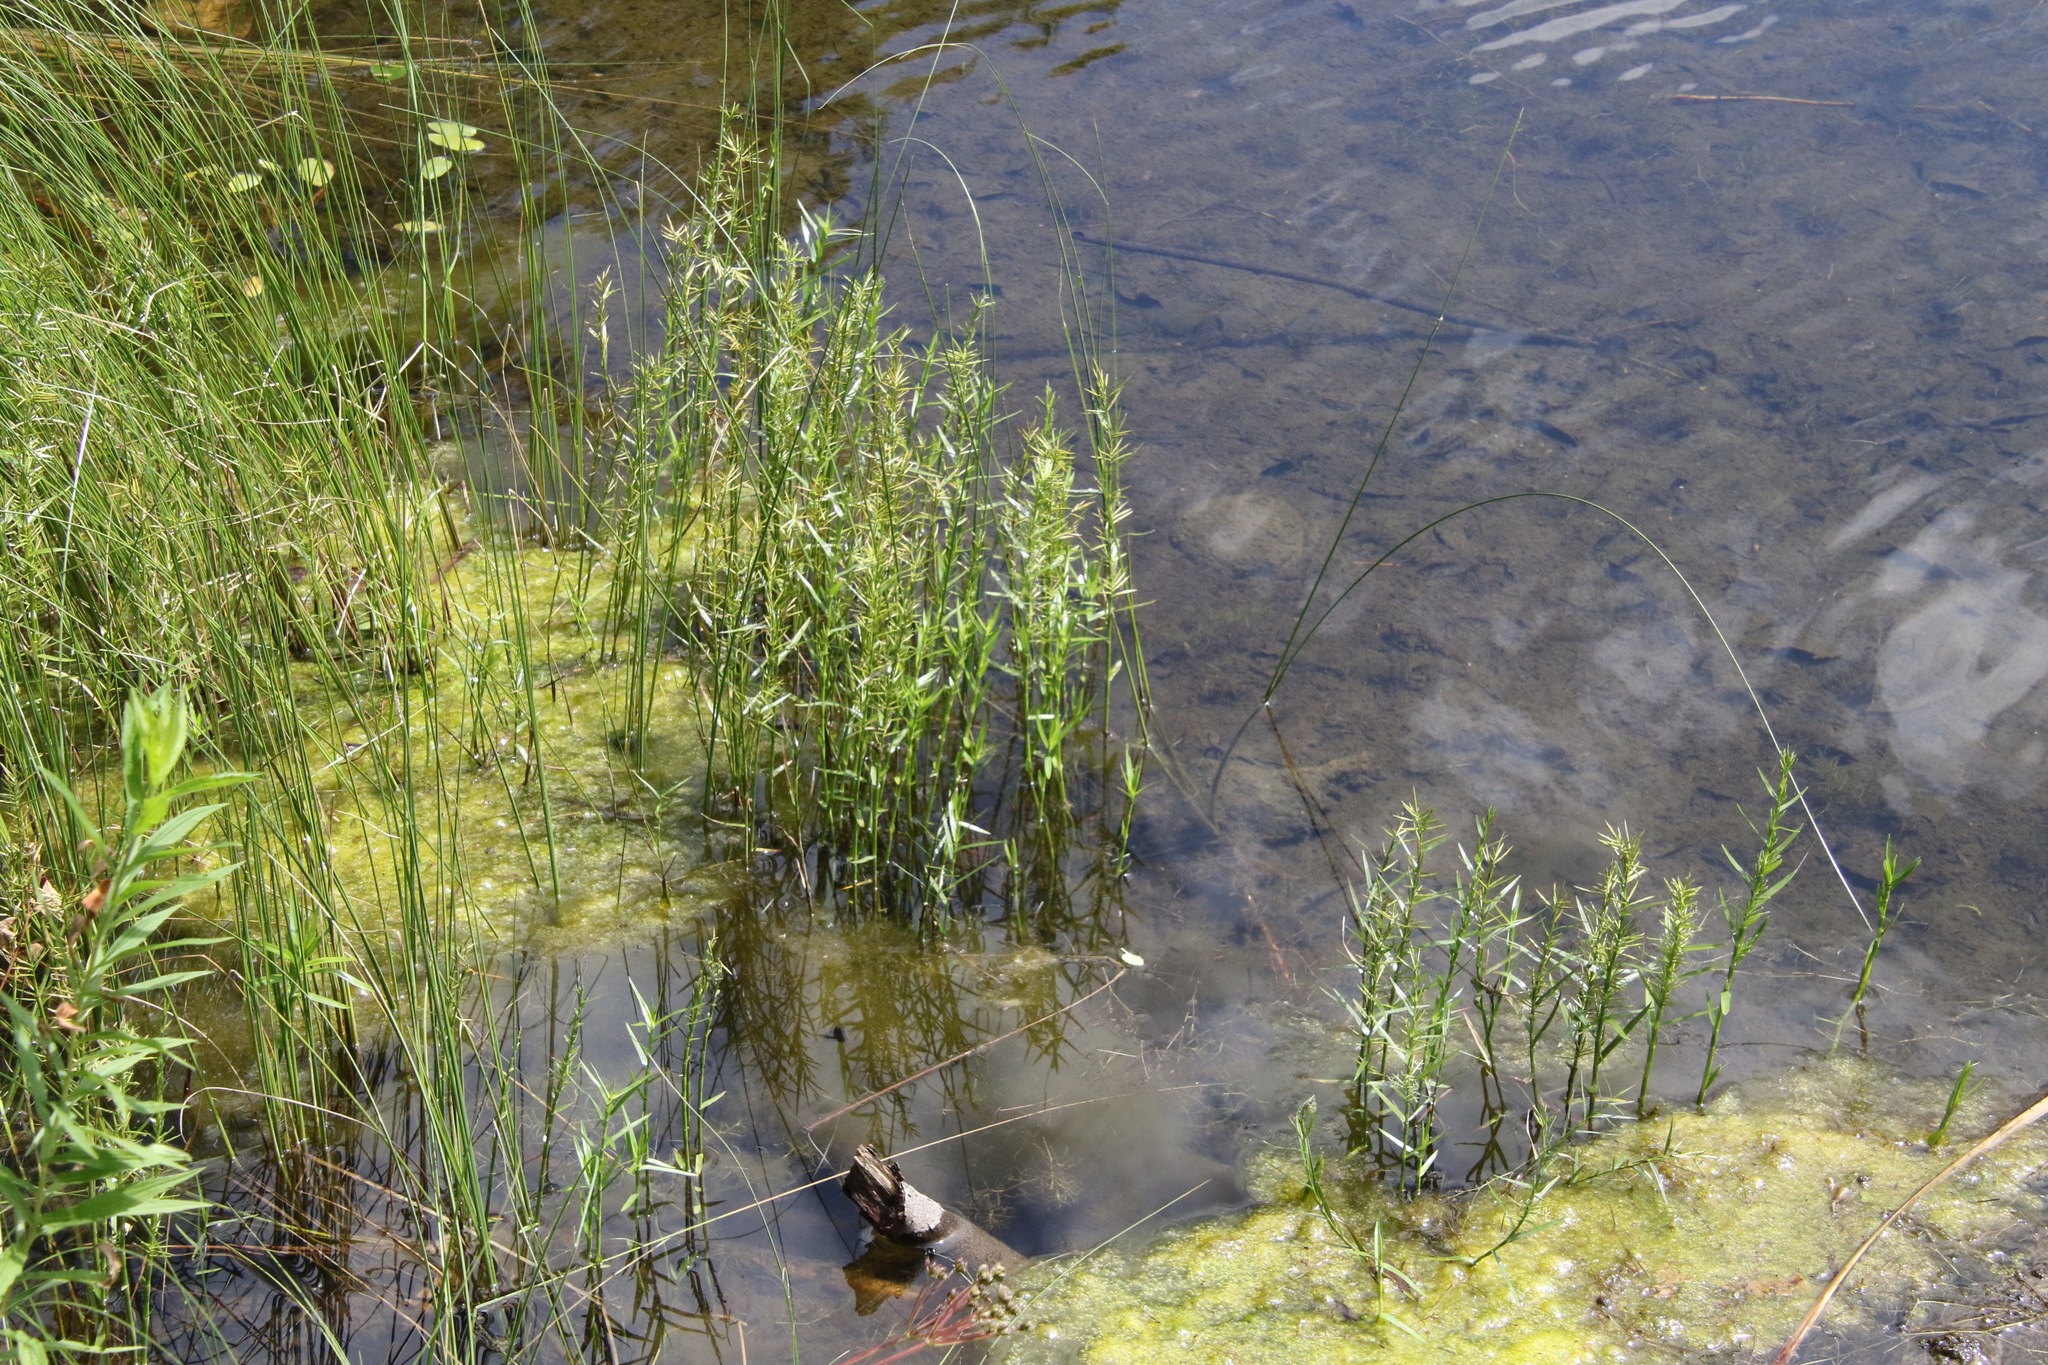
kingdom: Plantae
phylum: Tracheophyta
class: Liliopsida
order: Poales
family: Cyperaceae
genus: Dulichium
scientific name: Dulichium arundinaceum
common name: Three-way sedge
